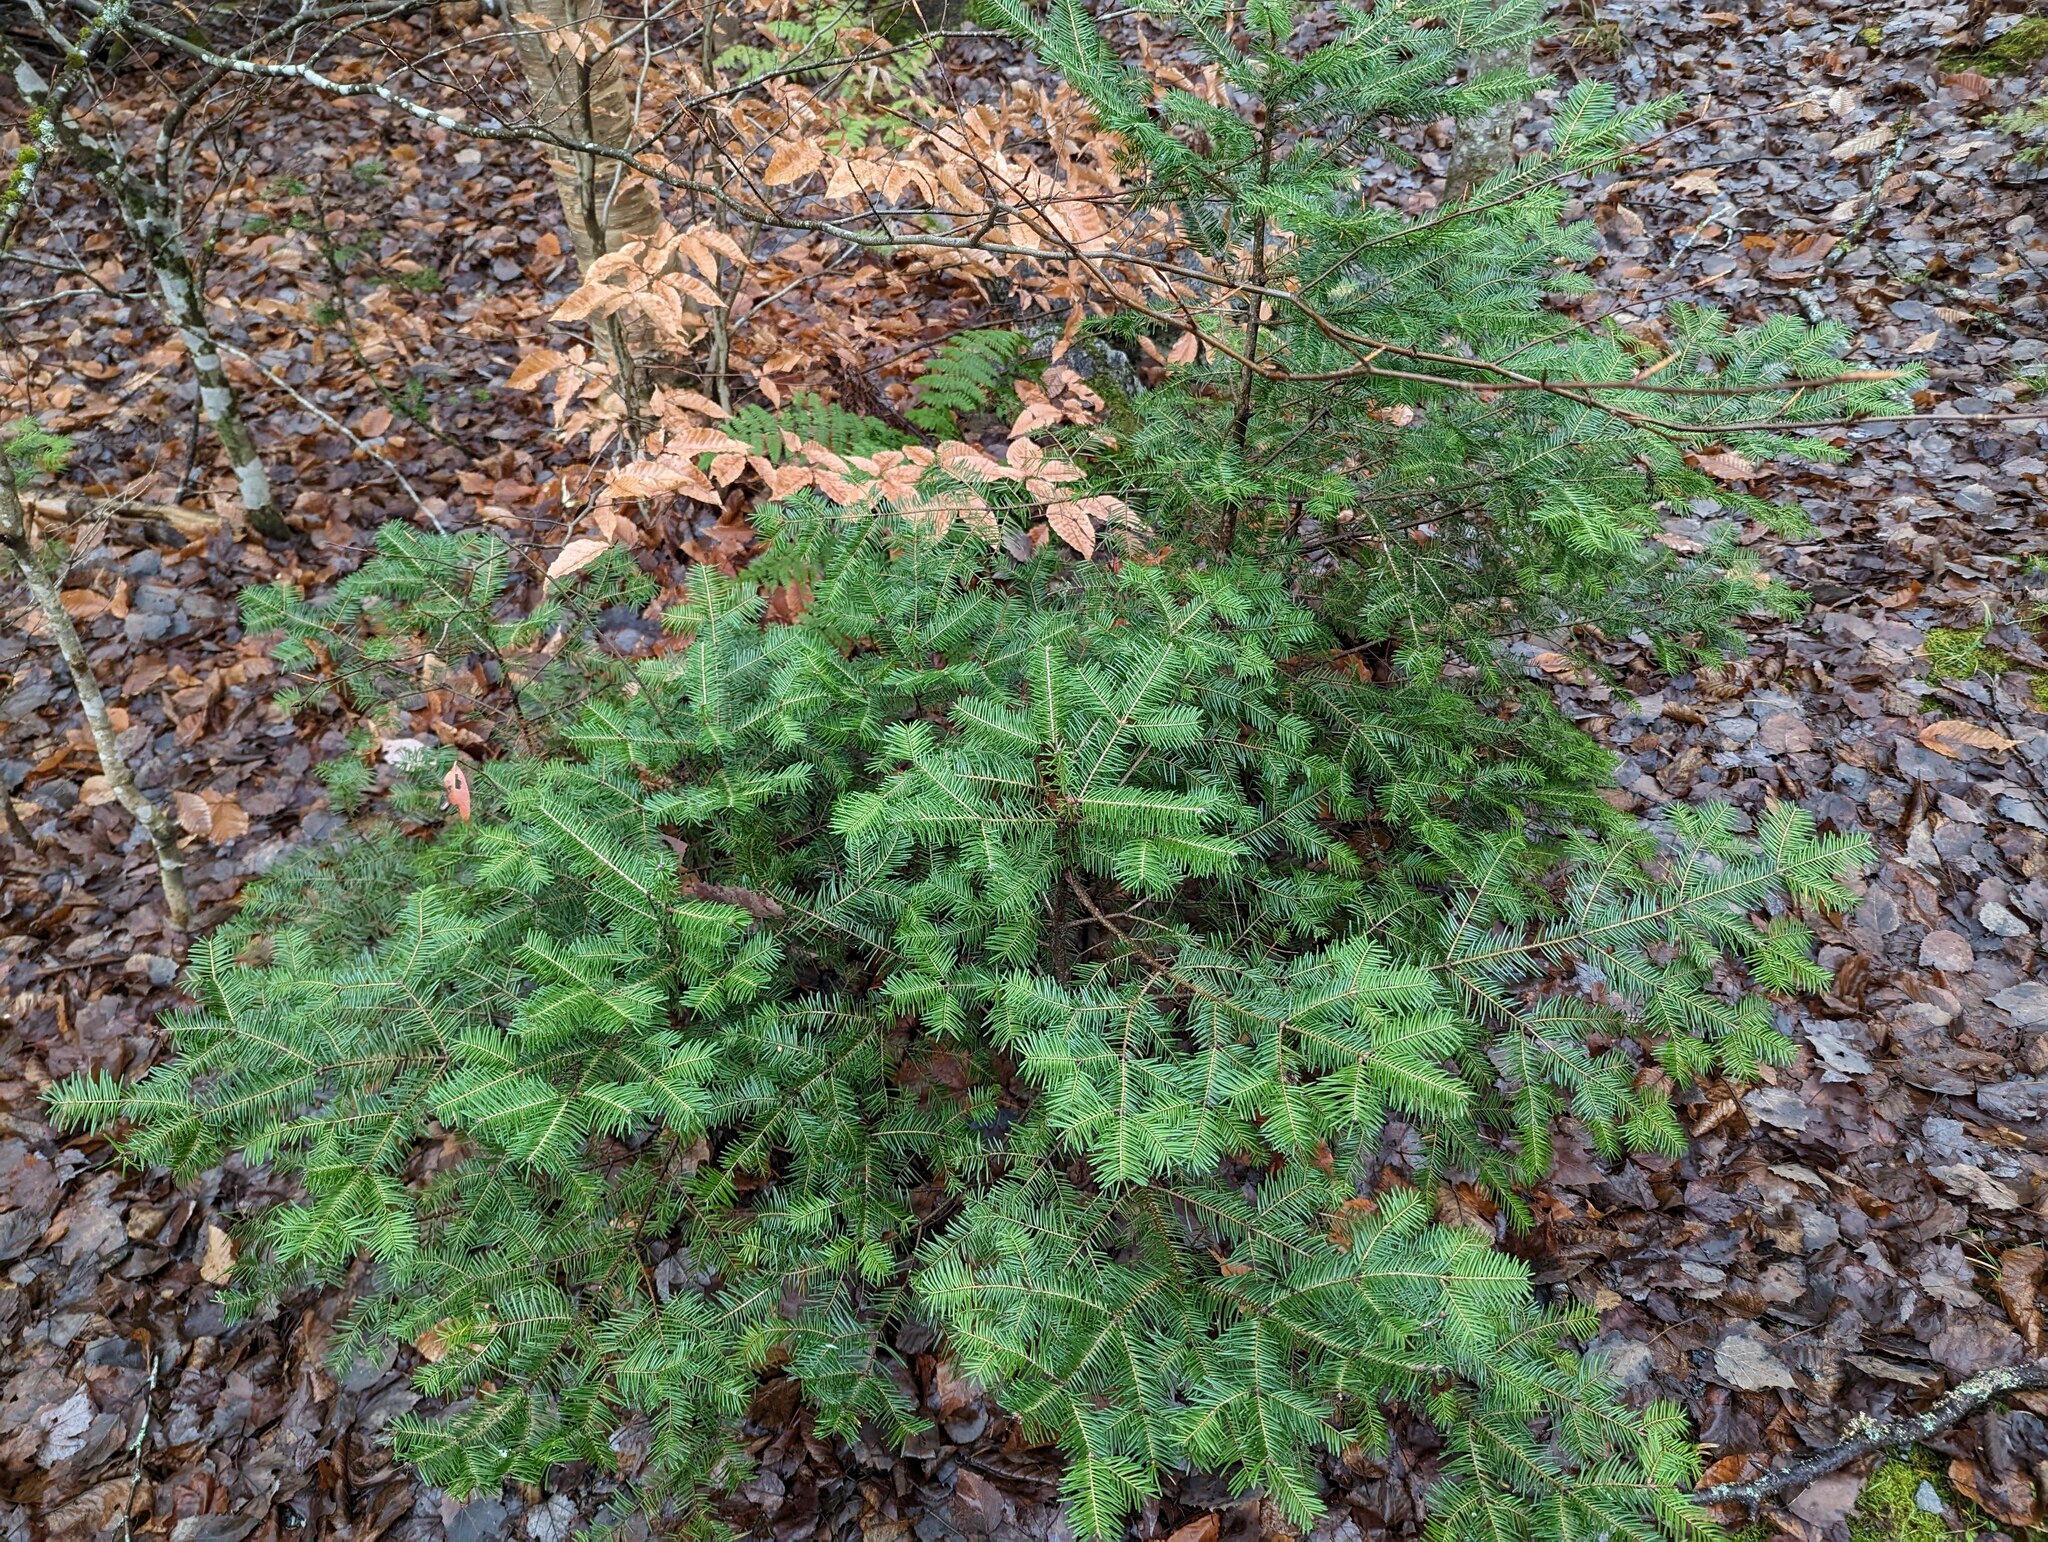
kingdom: Plantae
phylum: Tracheophyta
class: Pinopsida
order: Pinales
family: Pinaceae
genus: Abies
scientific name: Abies balsamea
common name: Balsam fir
